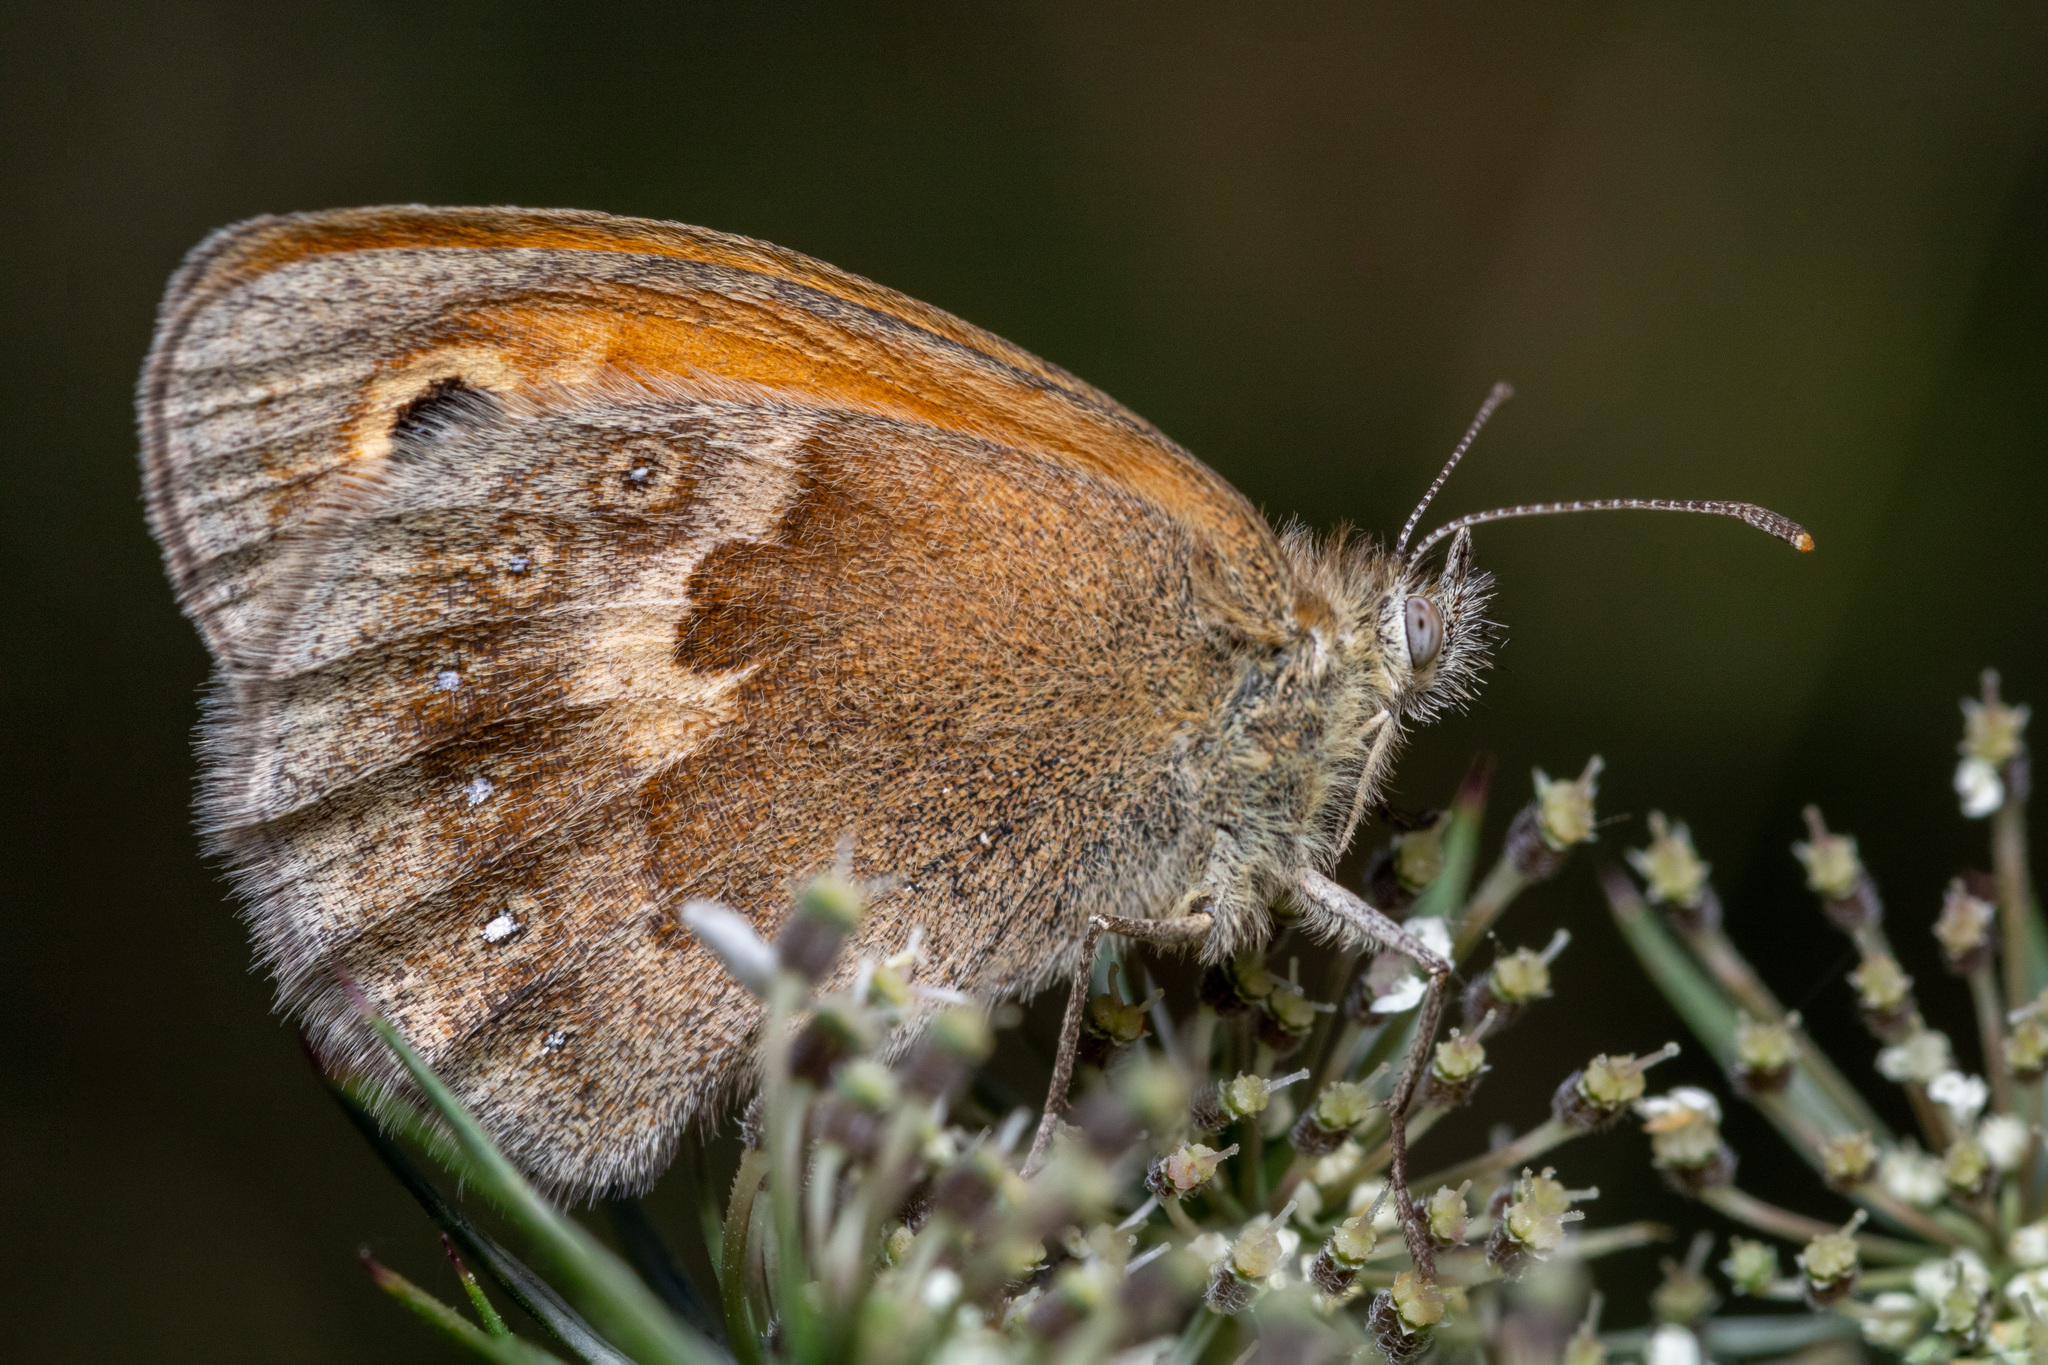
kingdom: Animalia
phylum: Arthropoda
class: Insecta
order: Lepidoptera
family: Nymphalidae
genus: Coenonympha
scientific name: Coenonympha pamphilus
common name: Small heath
